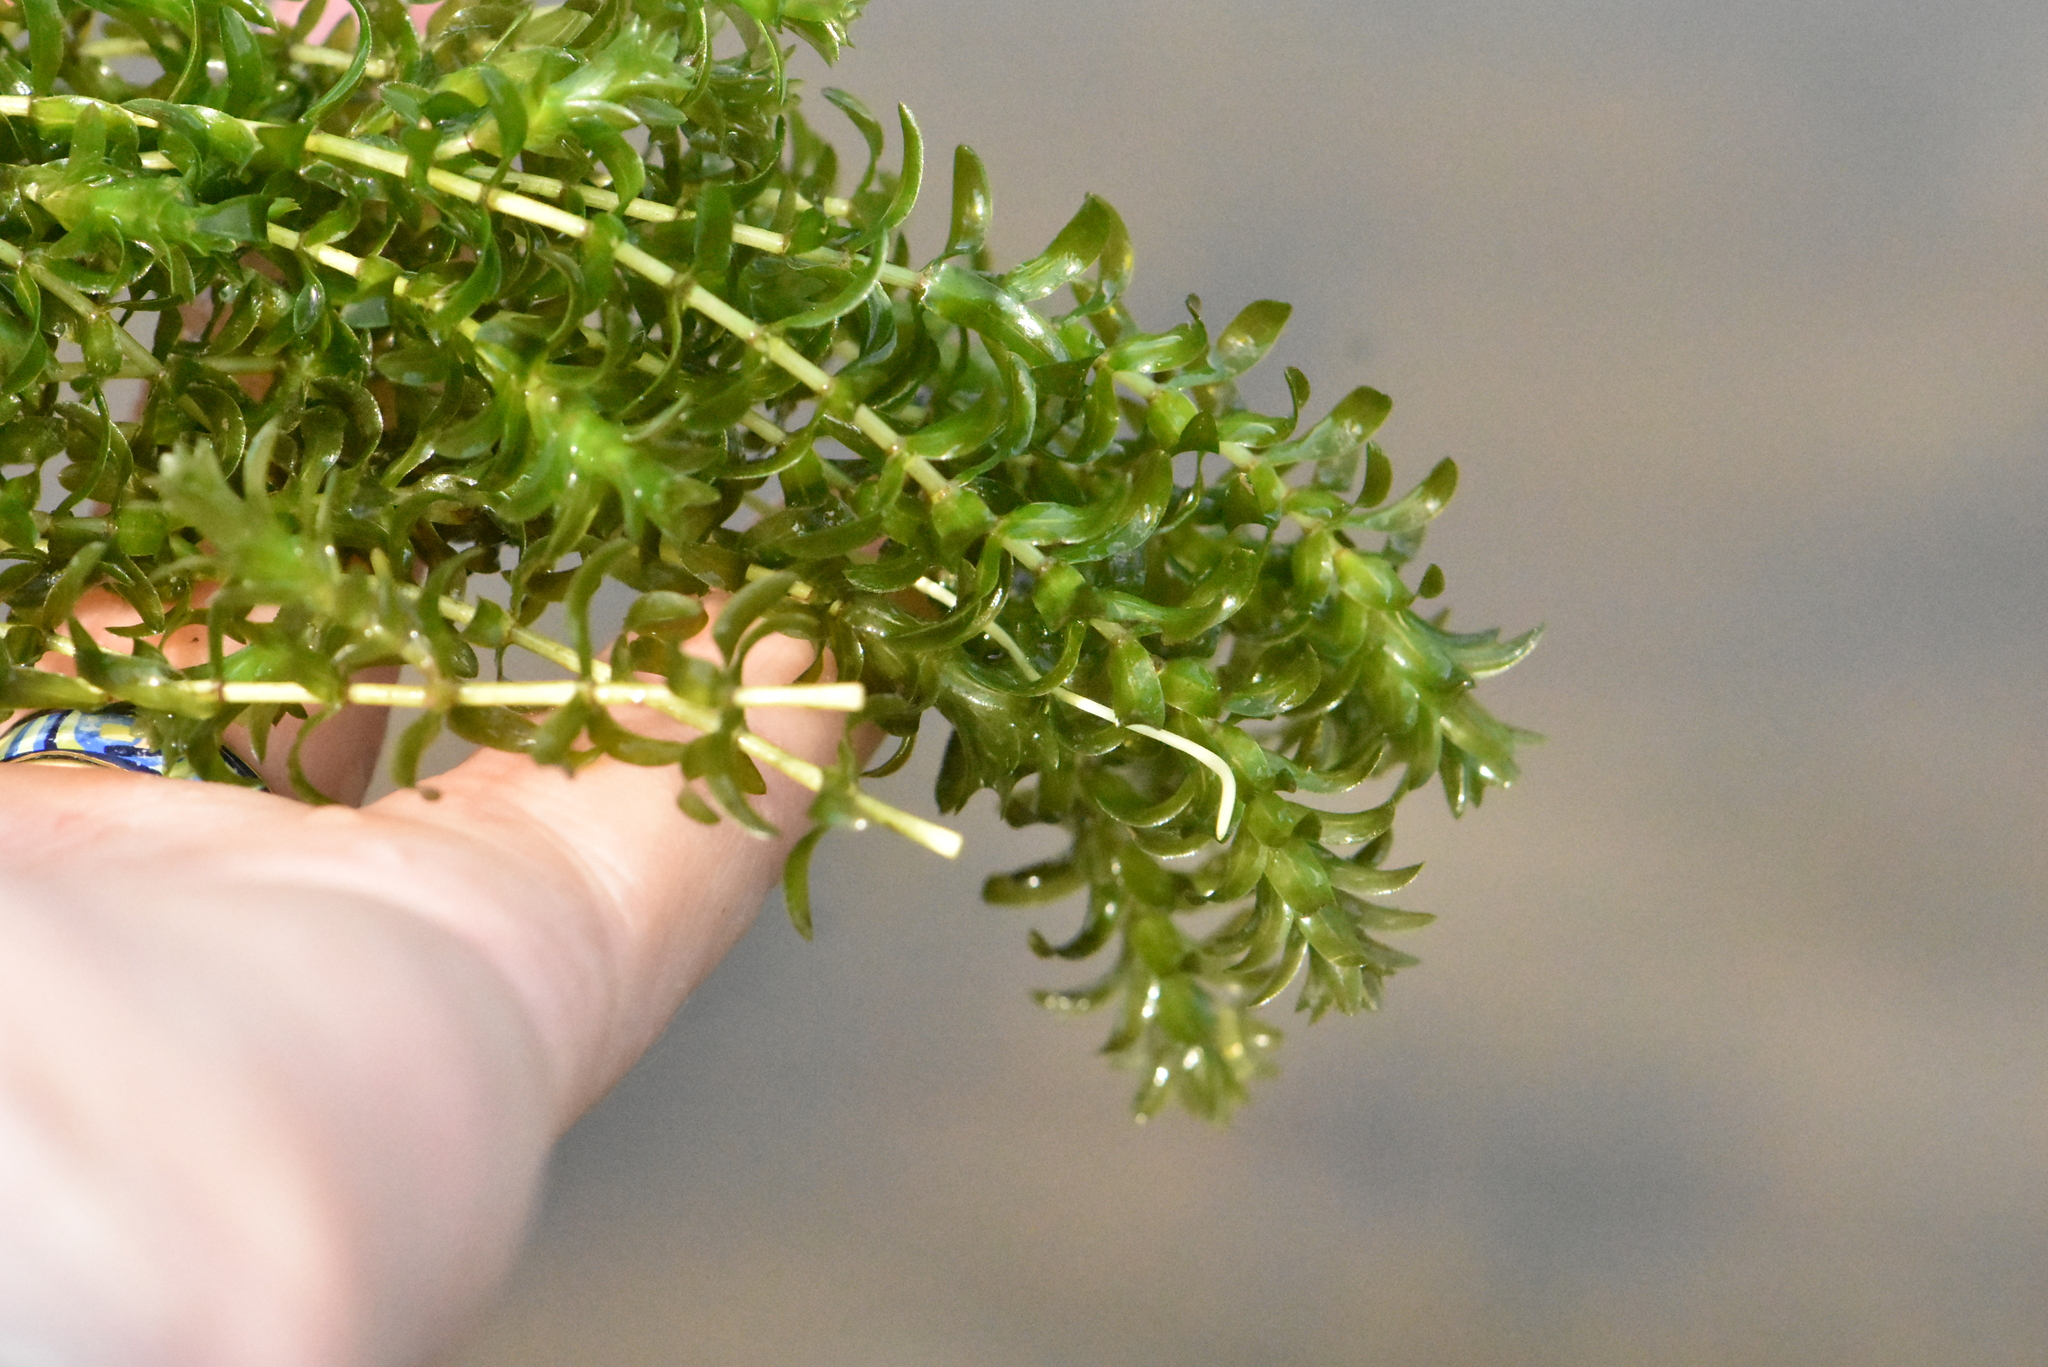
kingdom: Plantae
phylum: Tracheophyta
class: Liliopsida
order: Alismatales
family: Hydrocharitaceae
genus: Elodea
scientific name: Elodea canadensis
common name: Canadian waterweed
